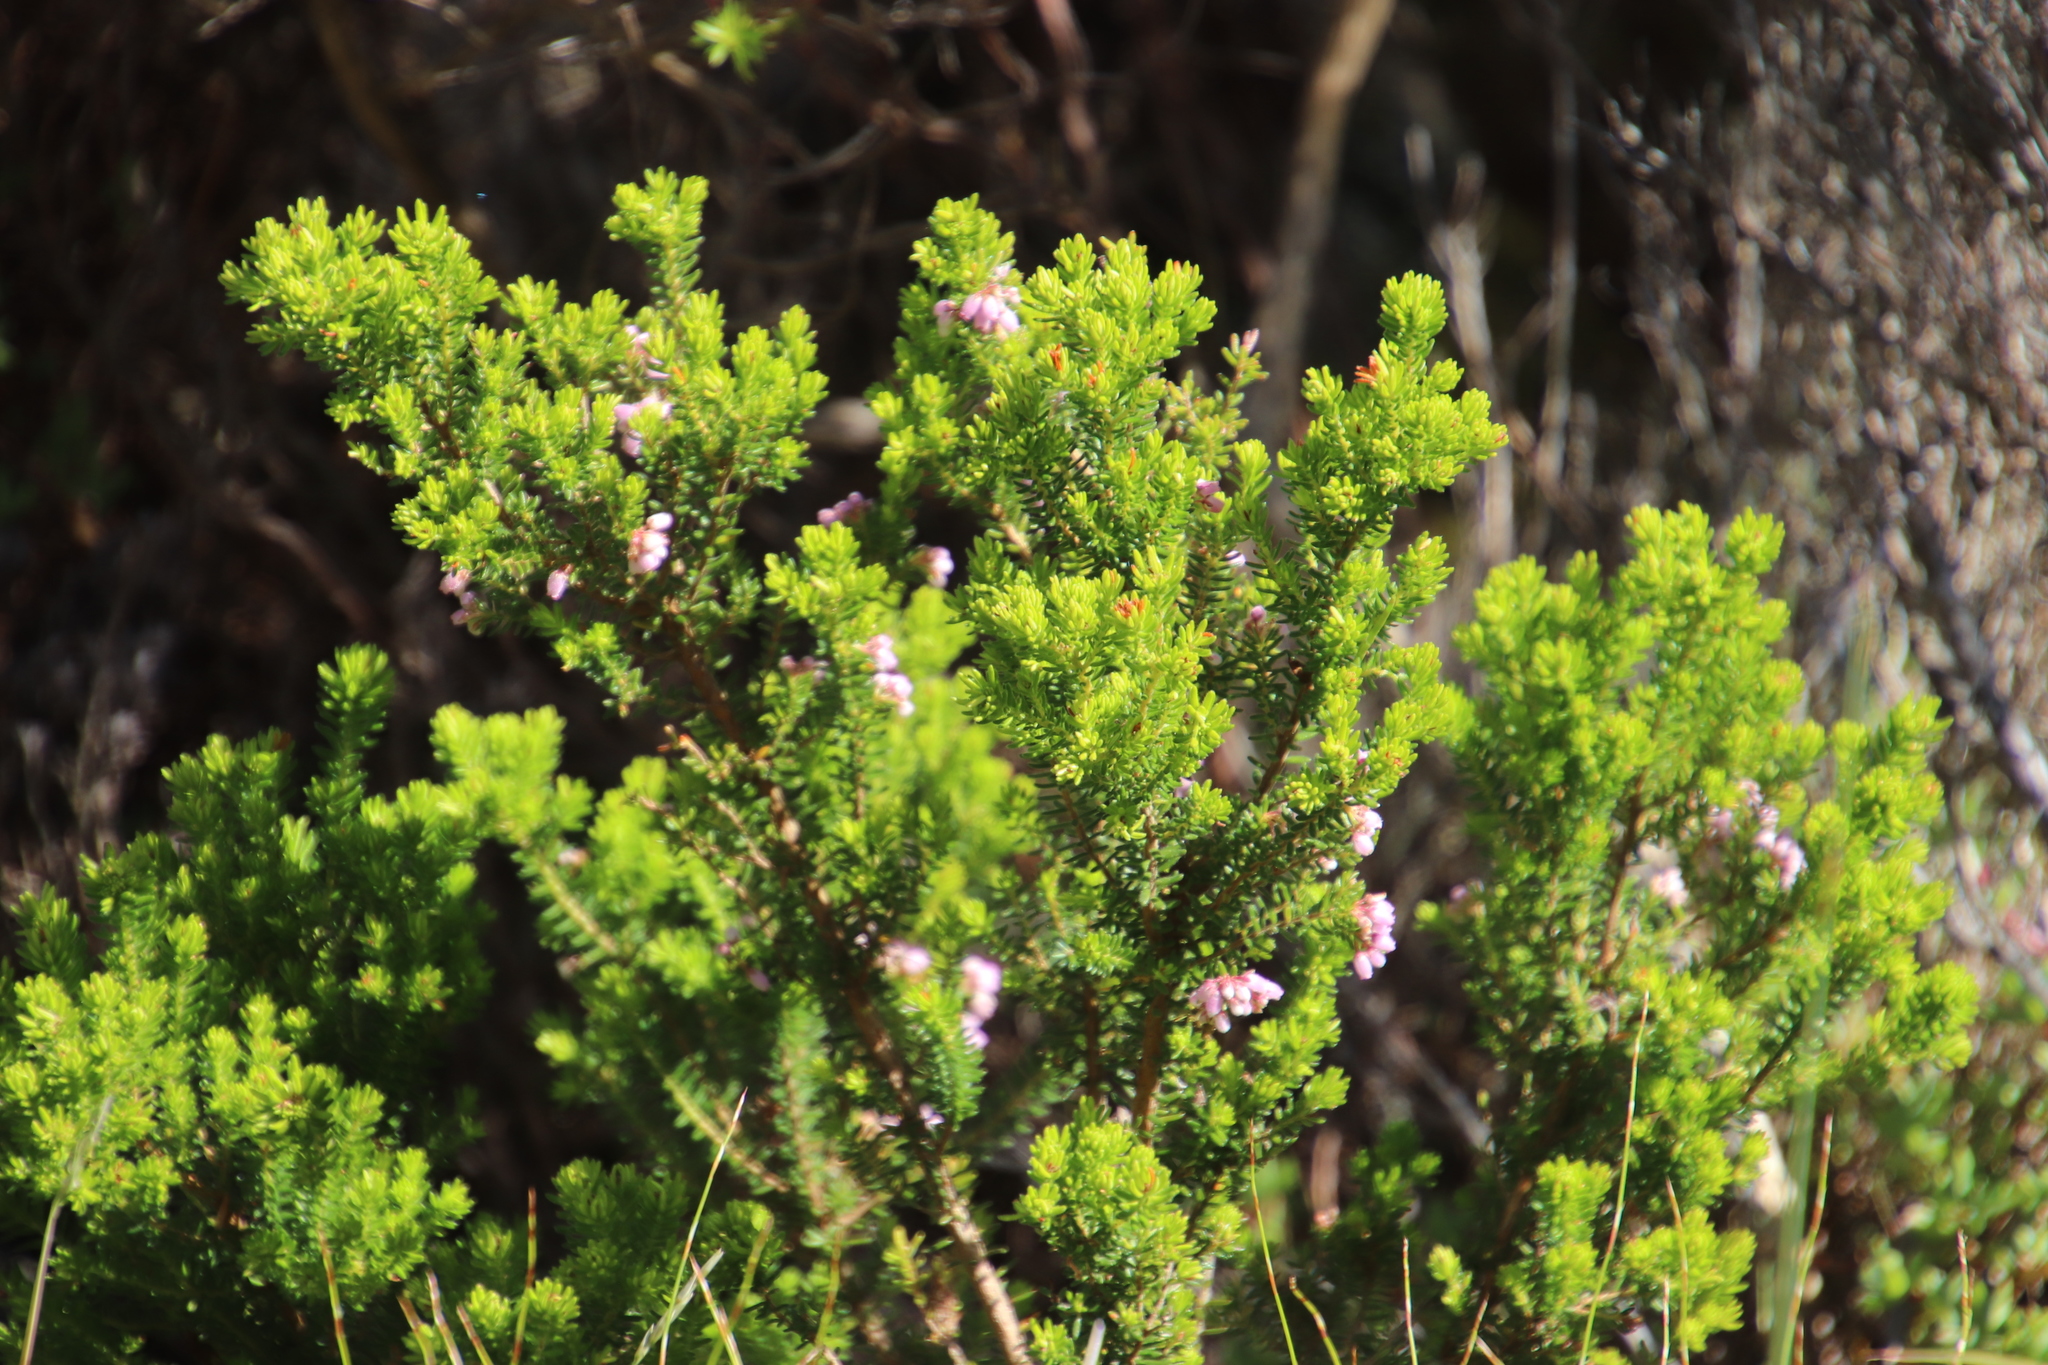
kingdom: Plantae
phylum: Tracheophyta
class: Magnoliopsida
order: Ericales
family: Ericaceae
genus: Erica
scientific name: Erica caterviflora
